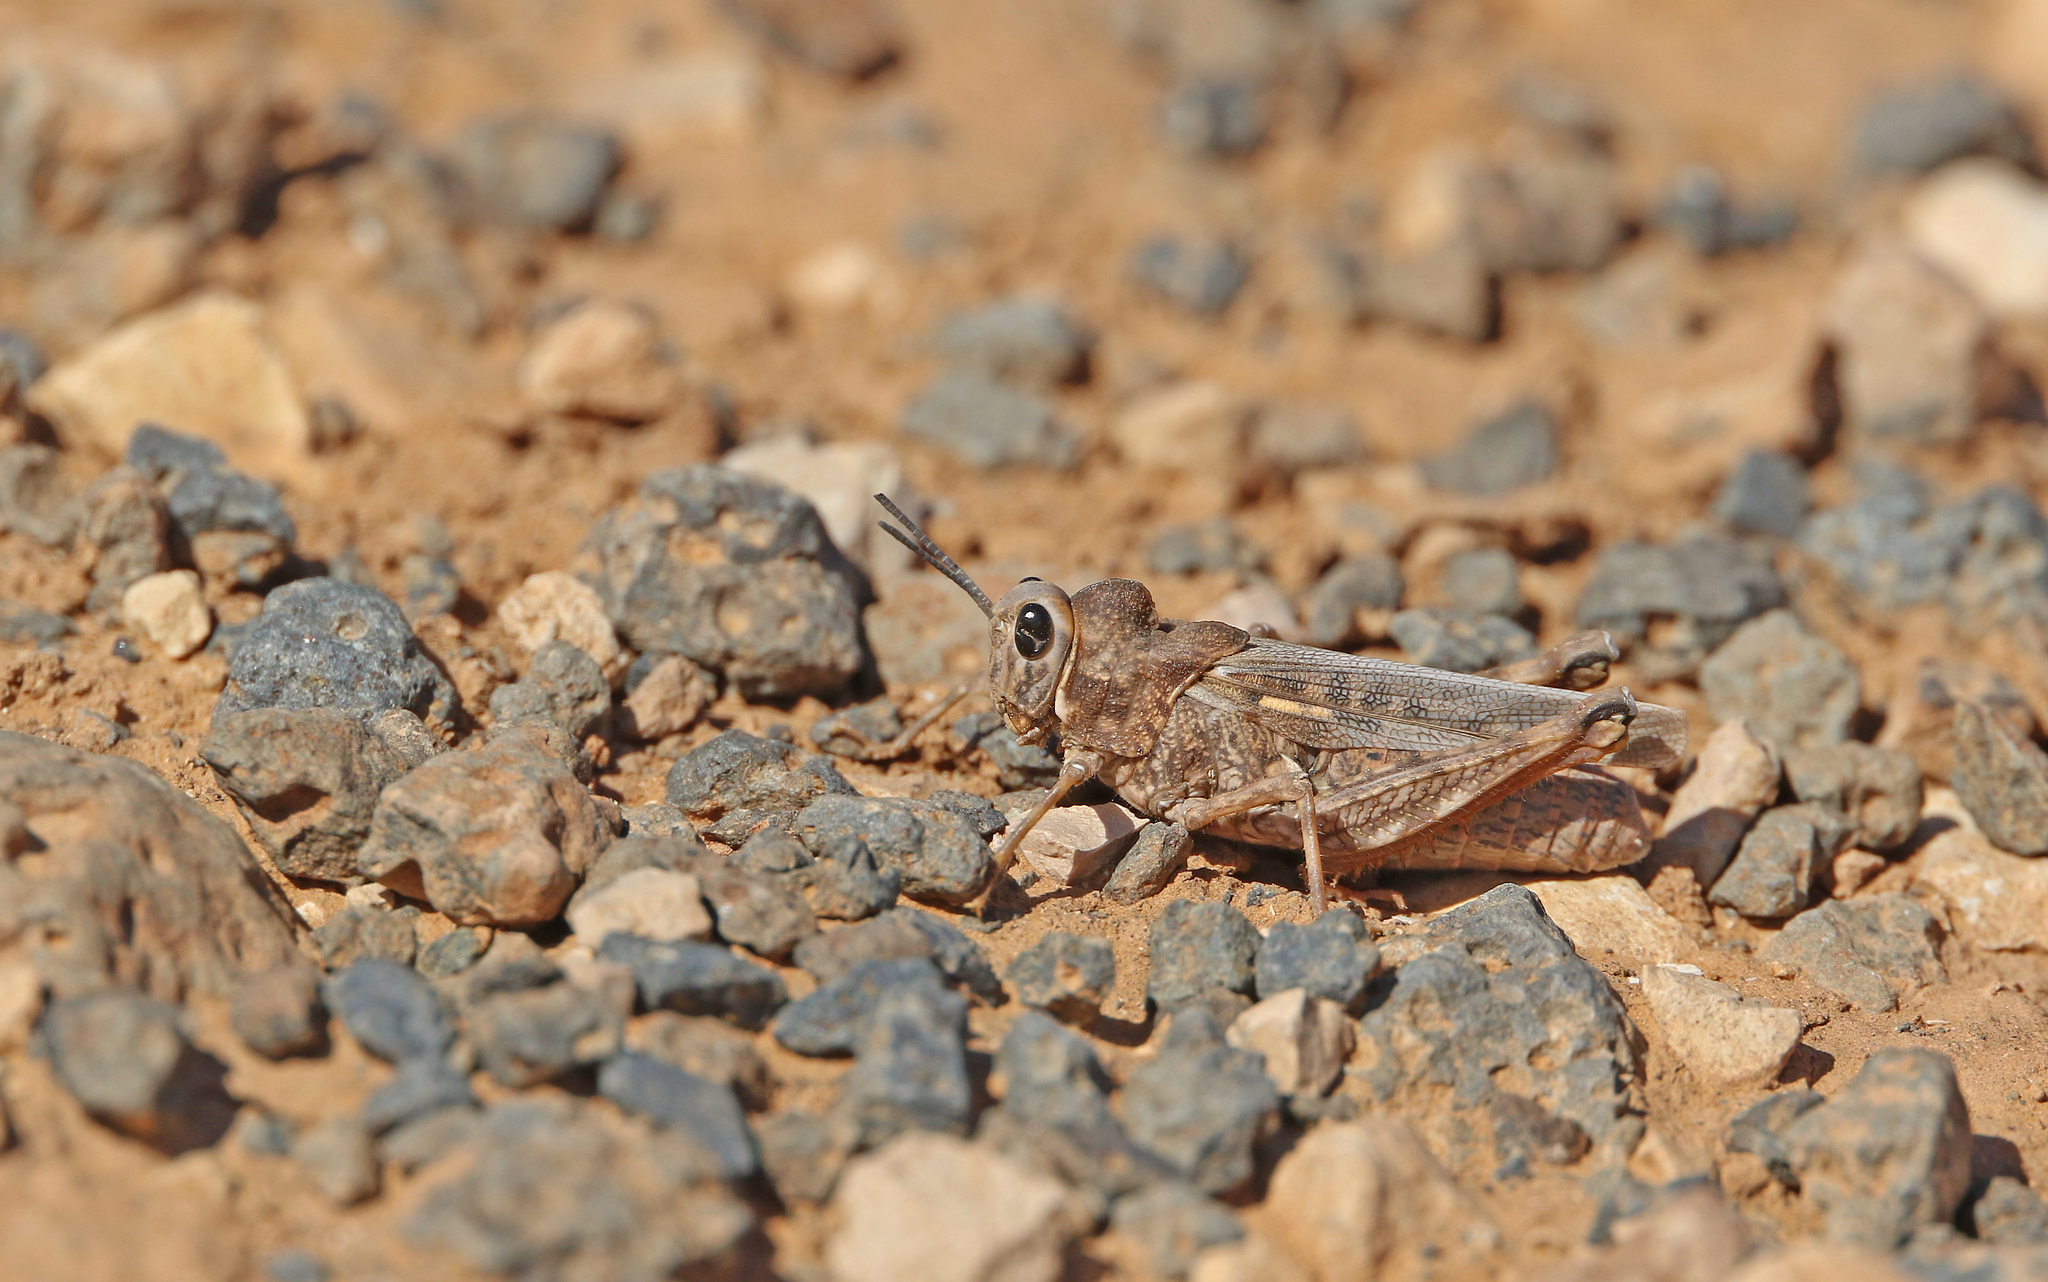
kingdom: Animalia
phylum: Arthropoda
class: Insecta
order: Orthoptera
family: Dericorythidae
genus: Dericorys
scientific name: Dericorys lobata
